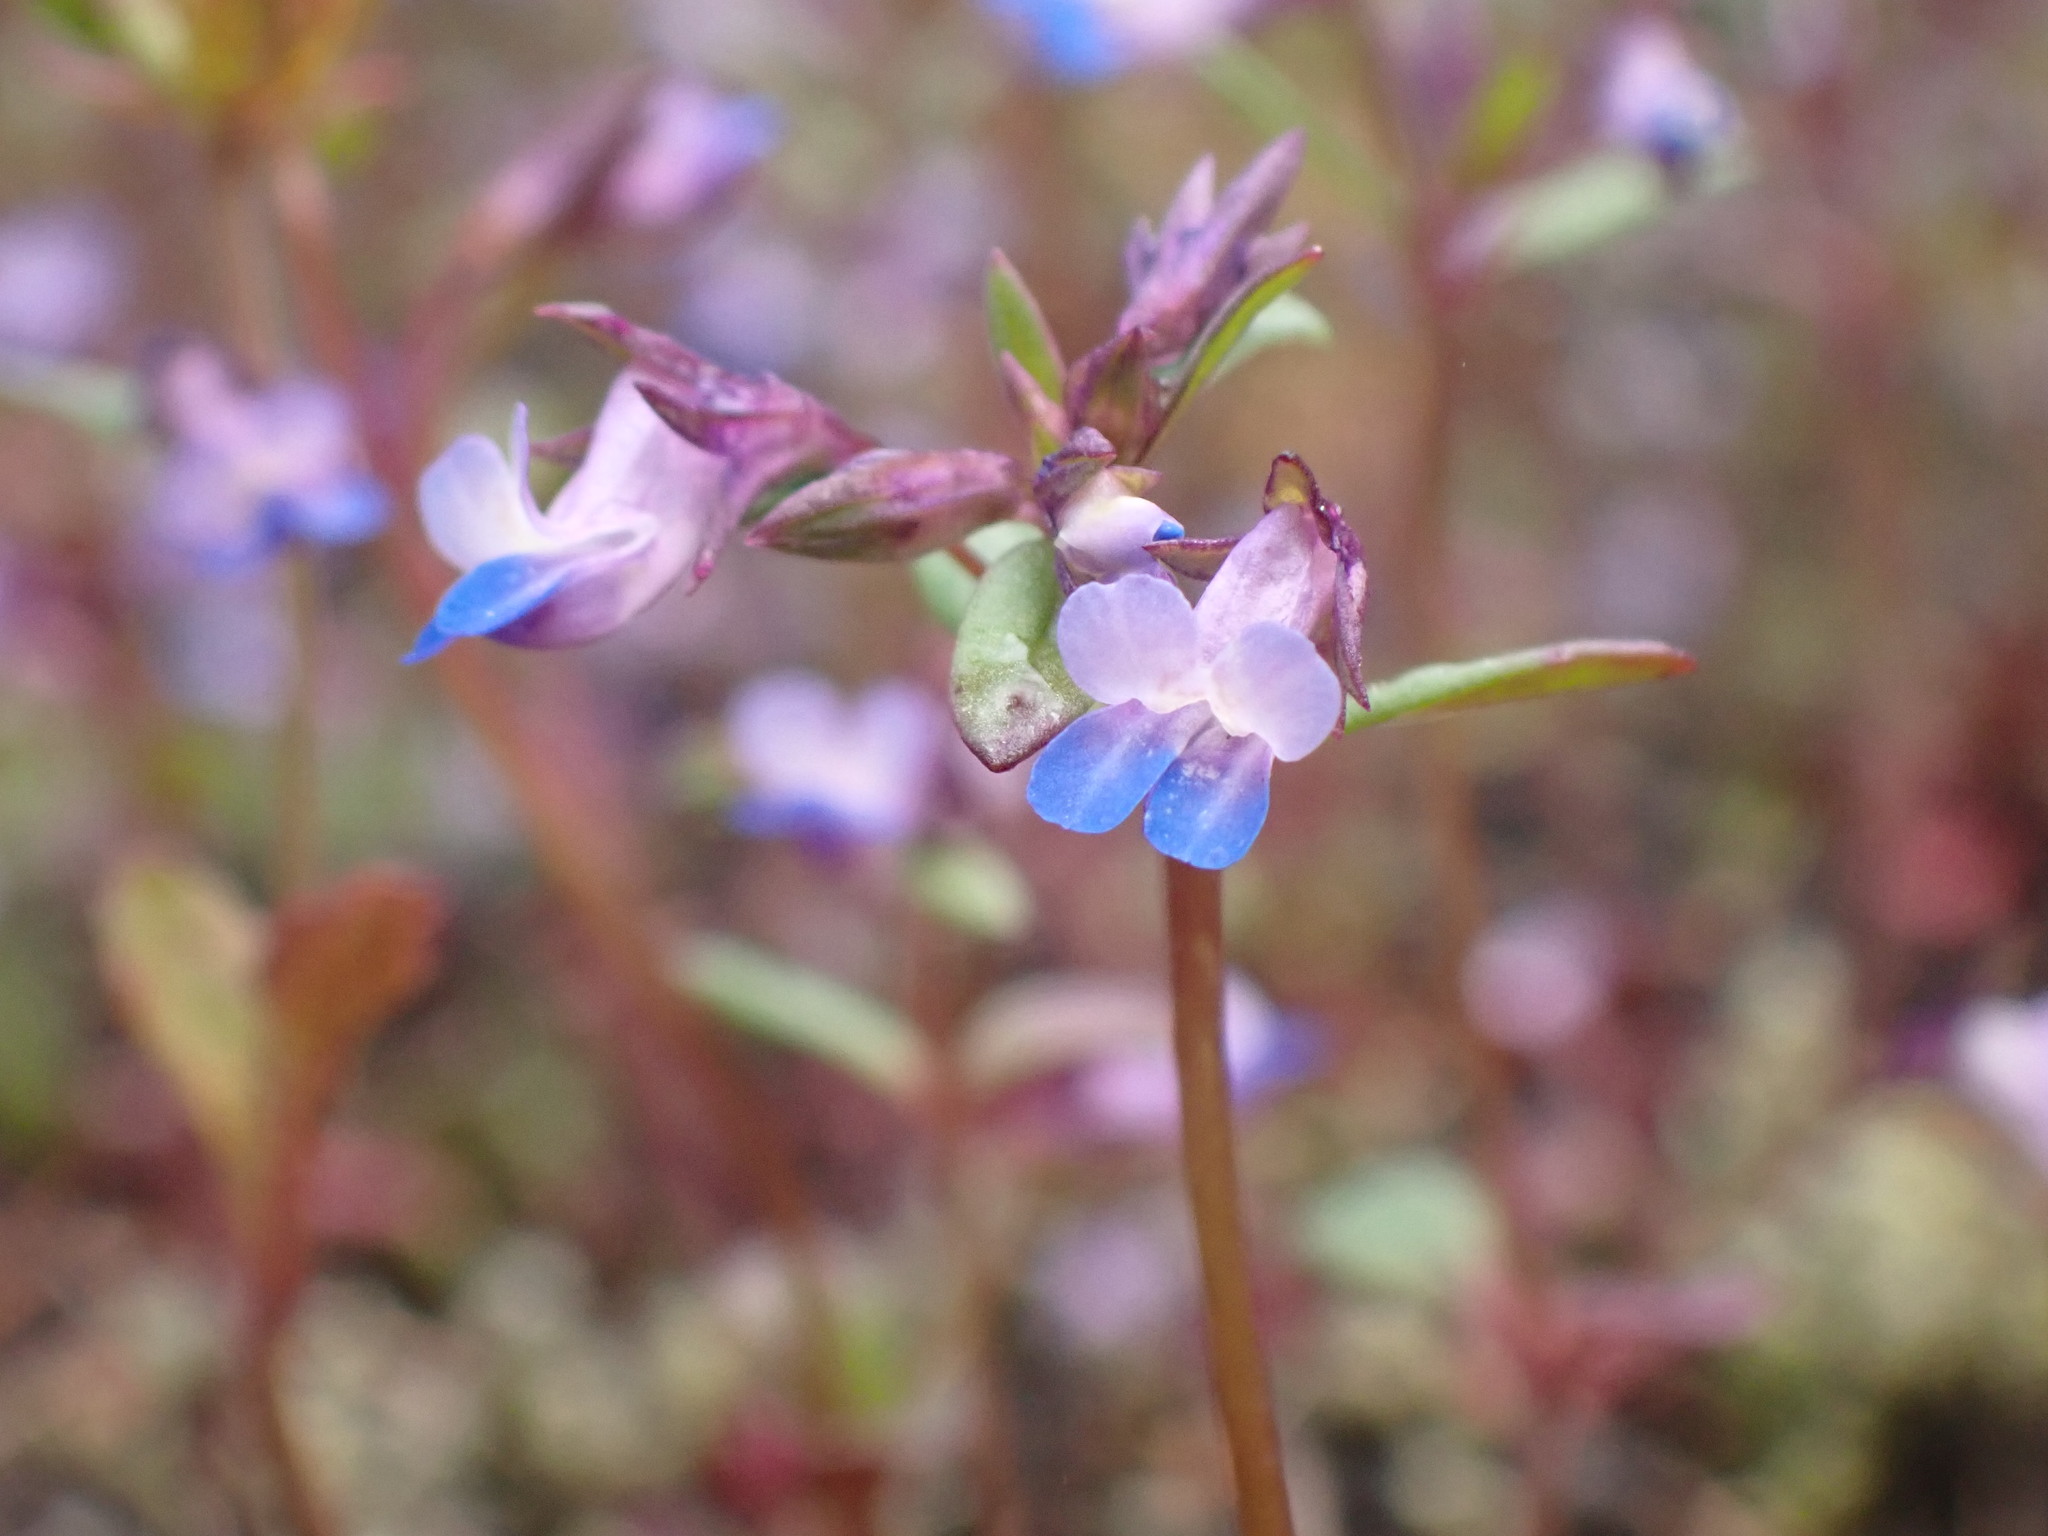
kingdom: Plantae
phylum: Tracheophyta
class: Magnoliopsida
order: Lamiales
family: Plantaginaceae
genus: Collinsia
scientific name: Collinsia parviflora
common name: Blue-lips
